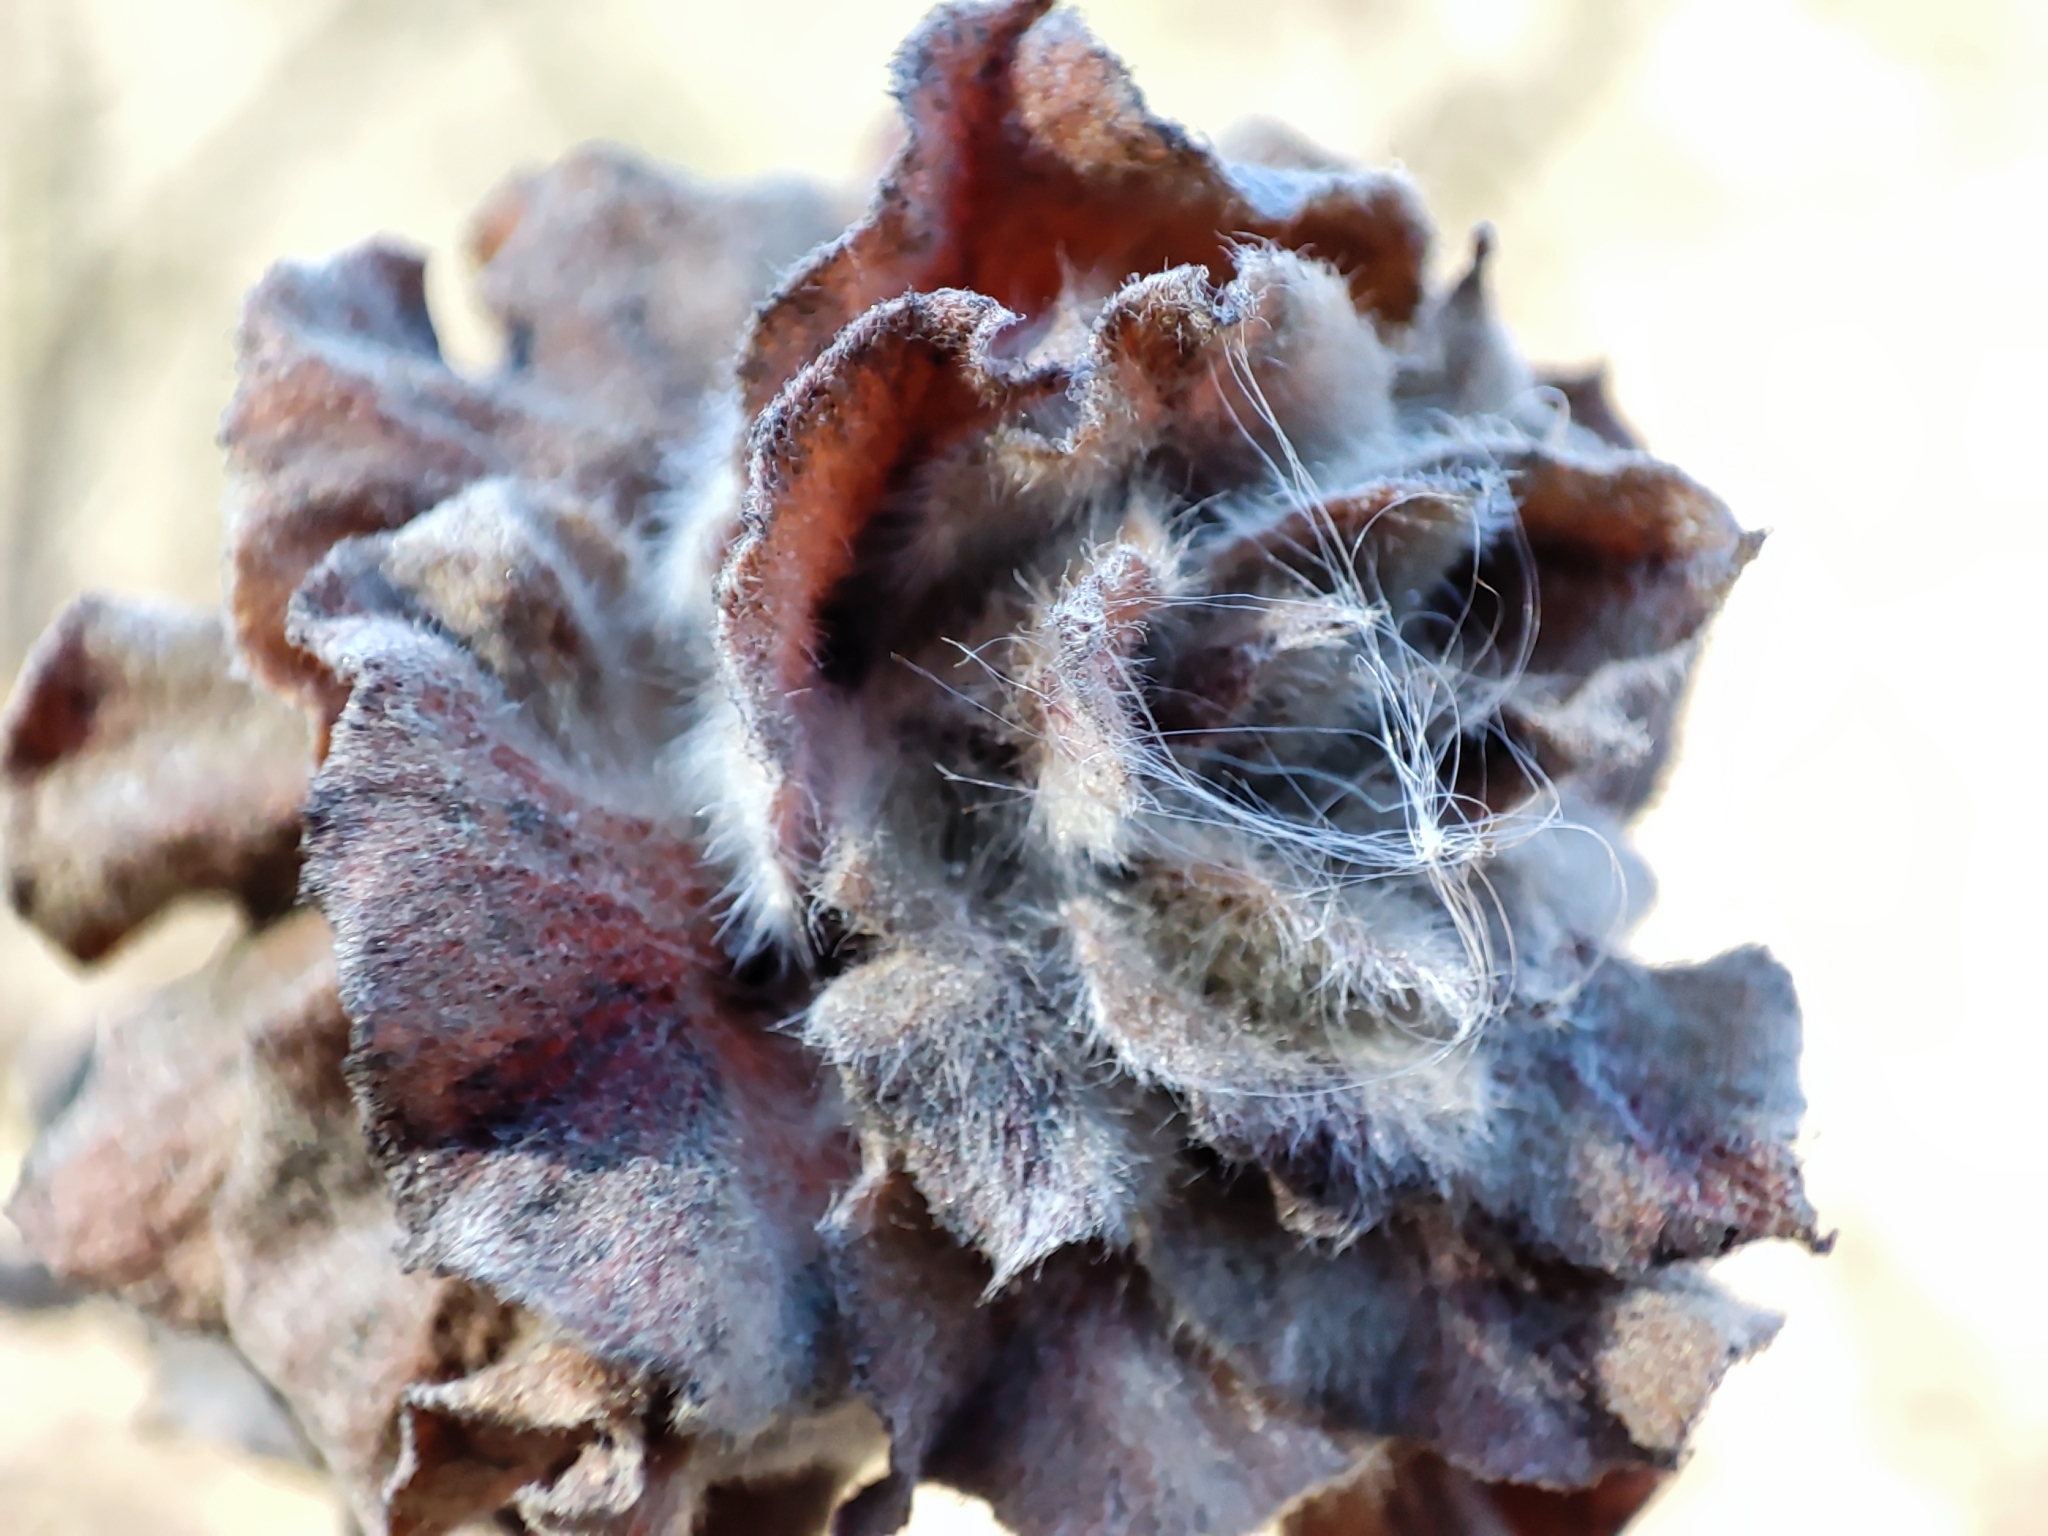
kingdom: Animalia
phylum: Arthropoda
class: Insecta
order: Diptera
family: Cecidomyiidae
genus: Rabdophaga
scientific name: Rabdophaga rosaria
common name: Willow rose gall midge
